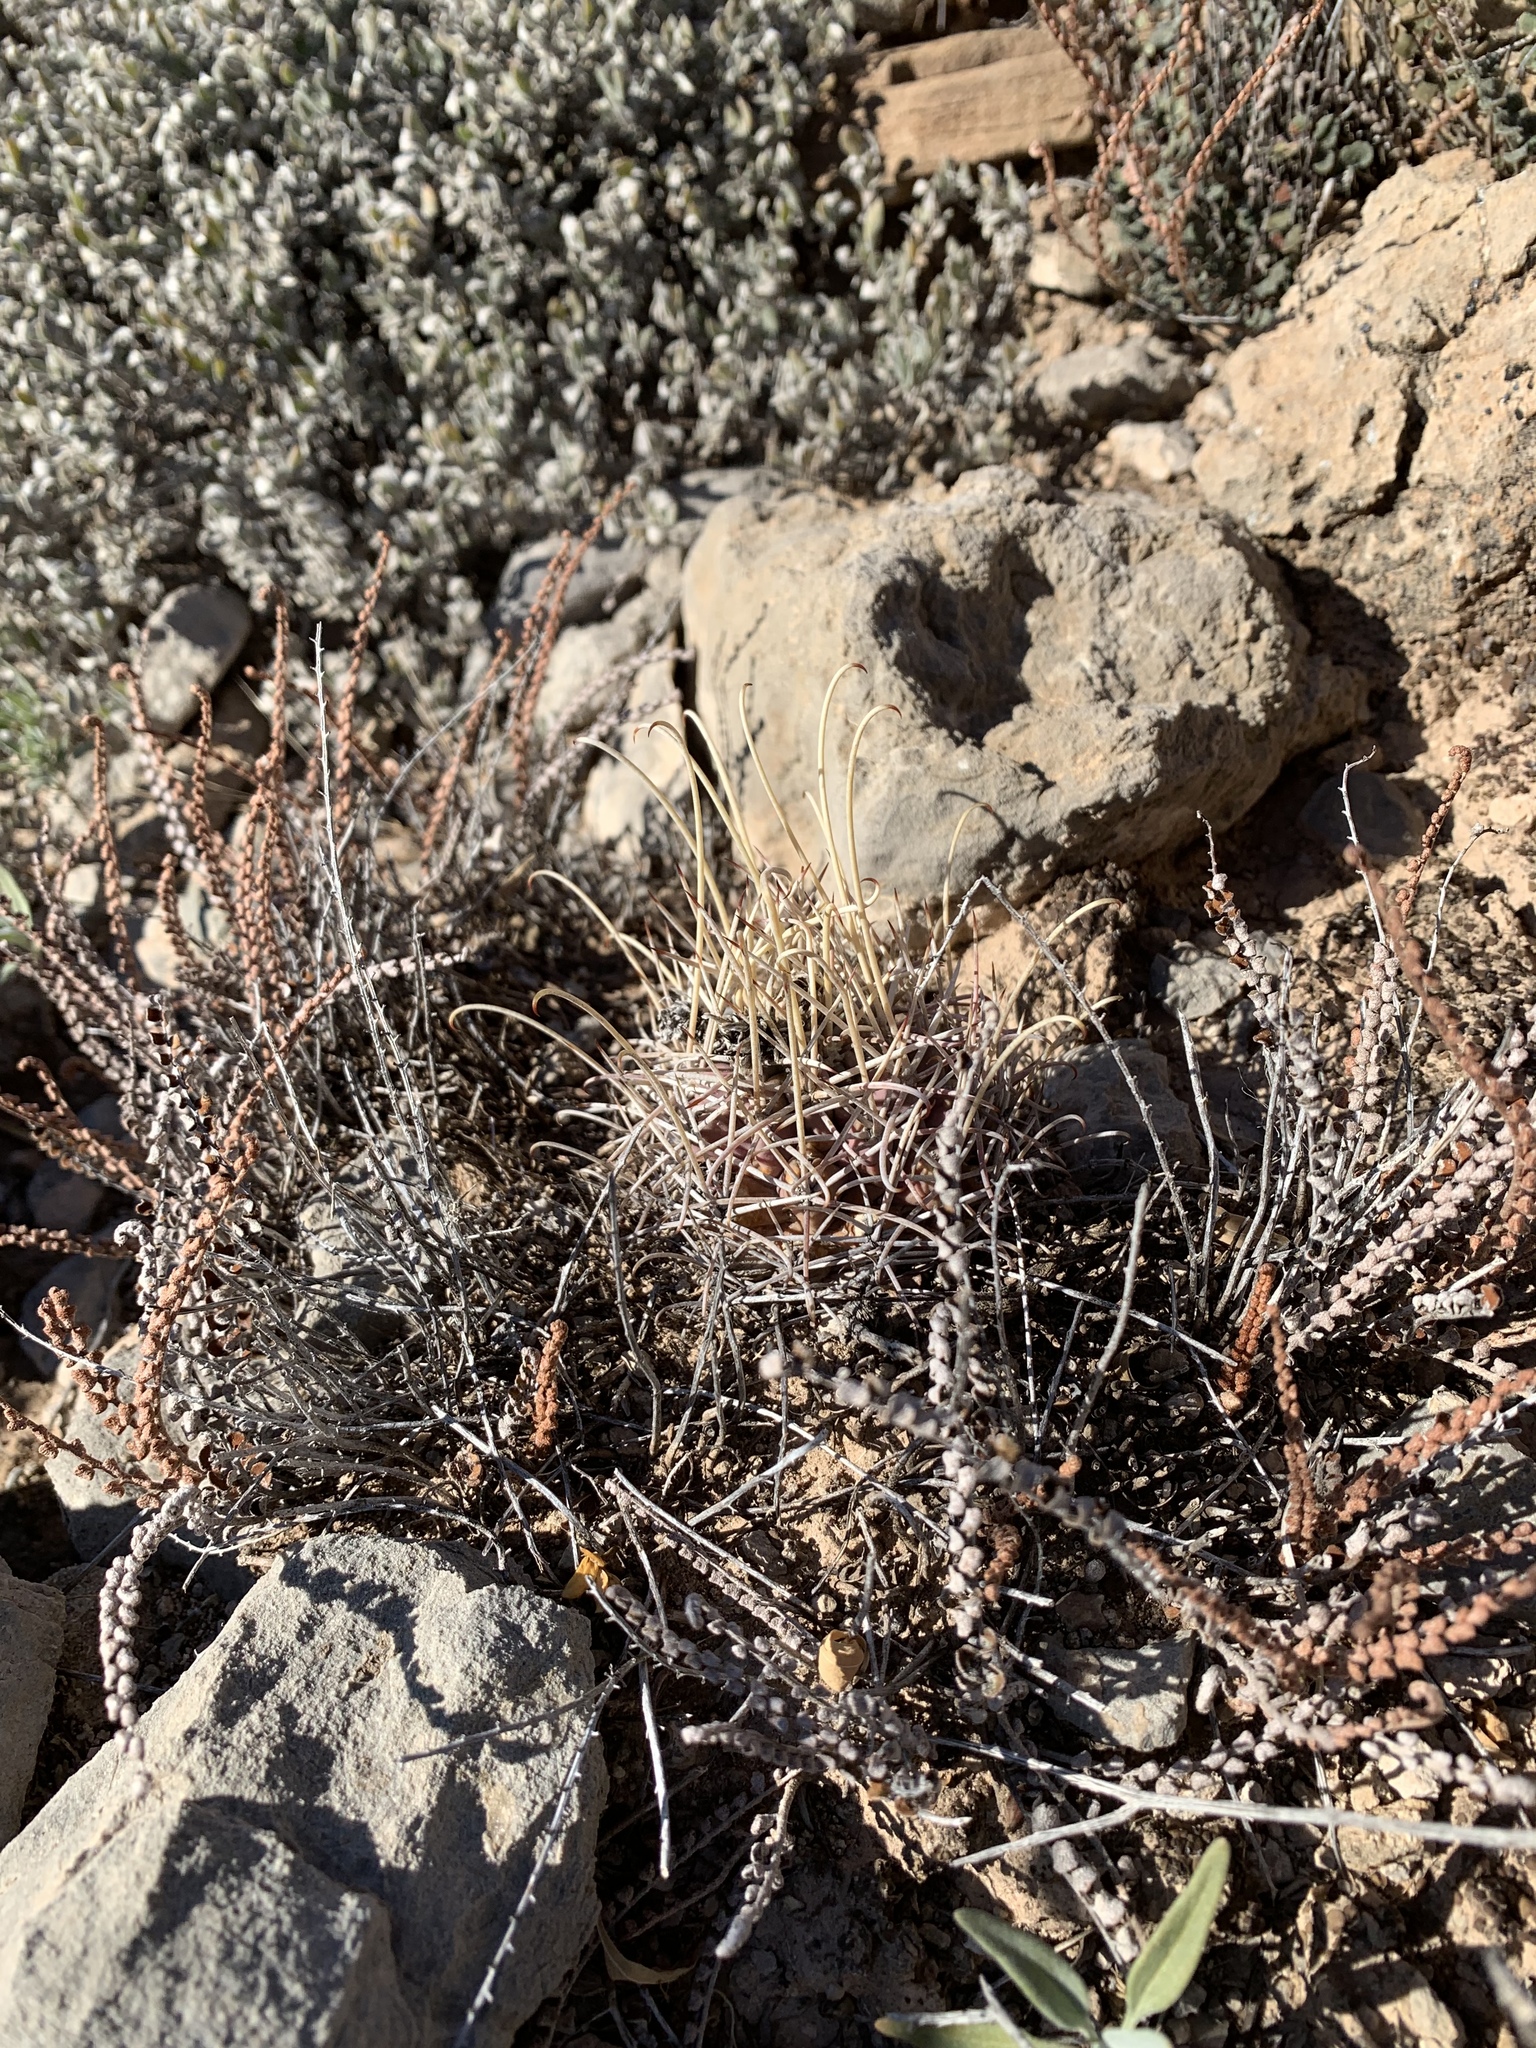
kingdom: Plantae
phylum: Tracheophyta
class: Magnoliopsida
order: Caryophyllales
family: Cactaceae
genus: Ferocactus
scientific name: Ferocactus uncinatus
